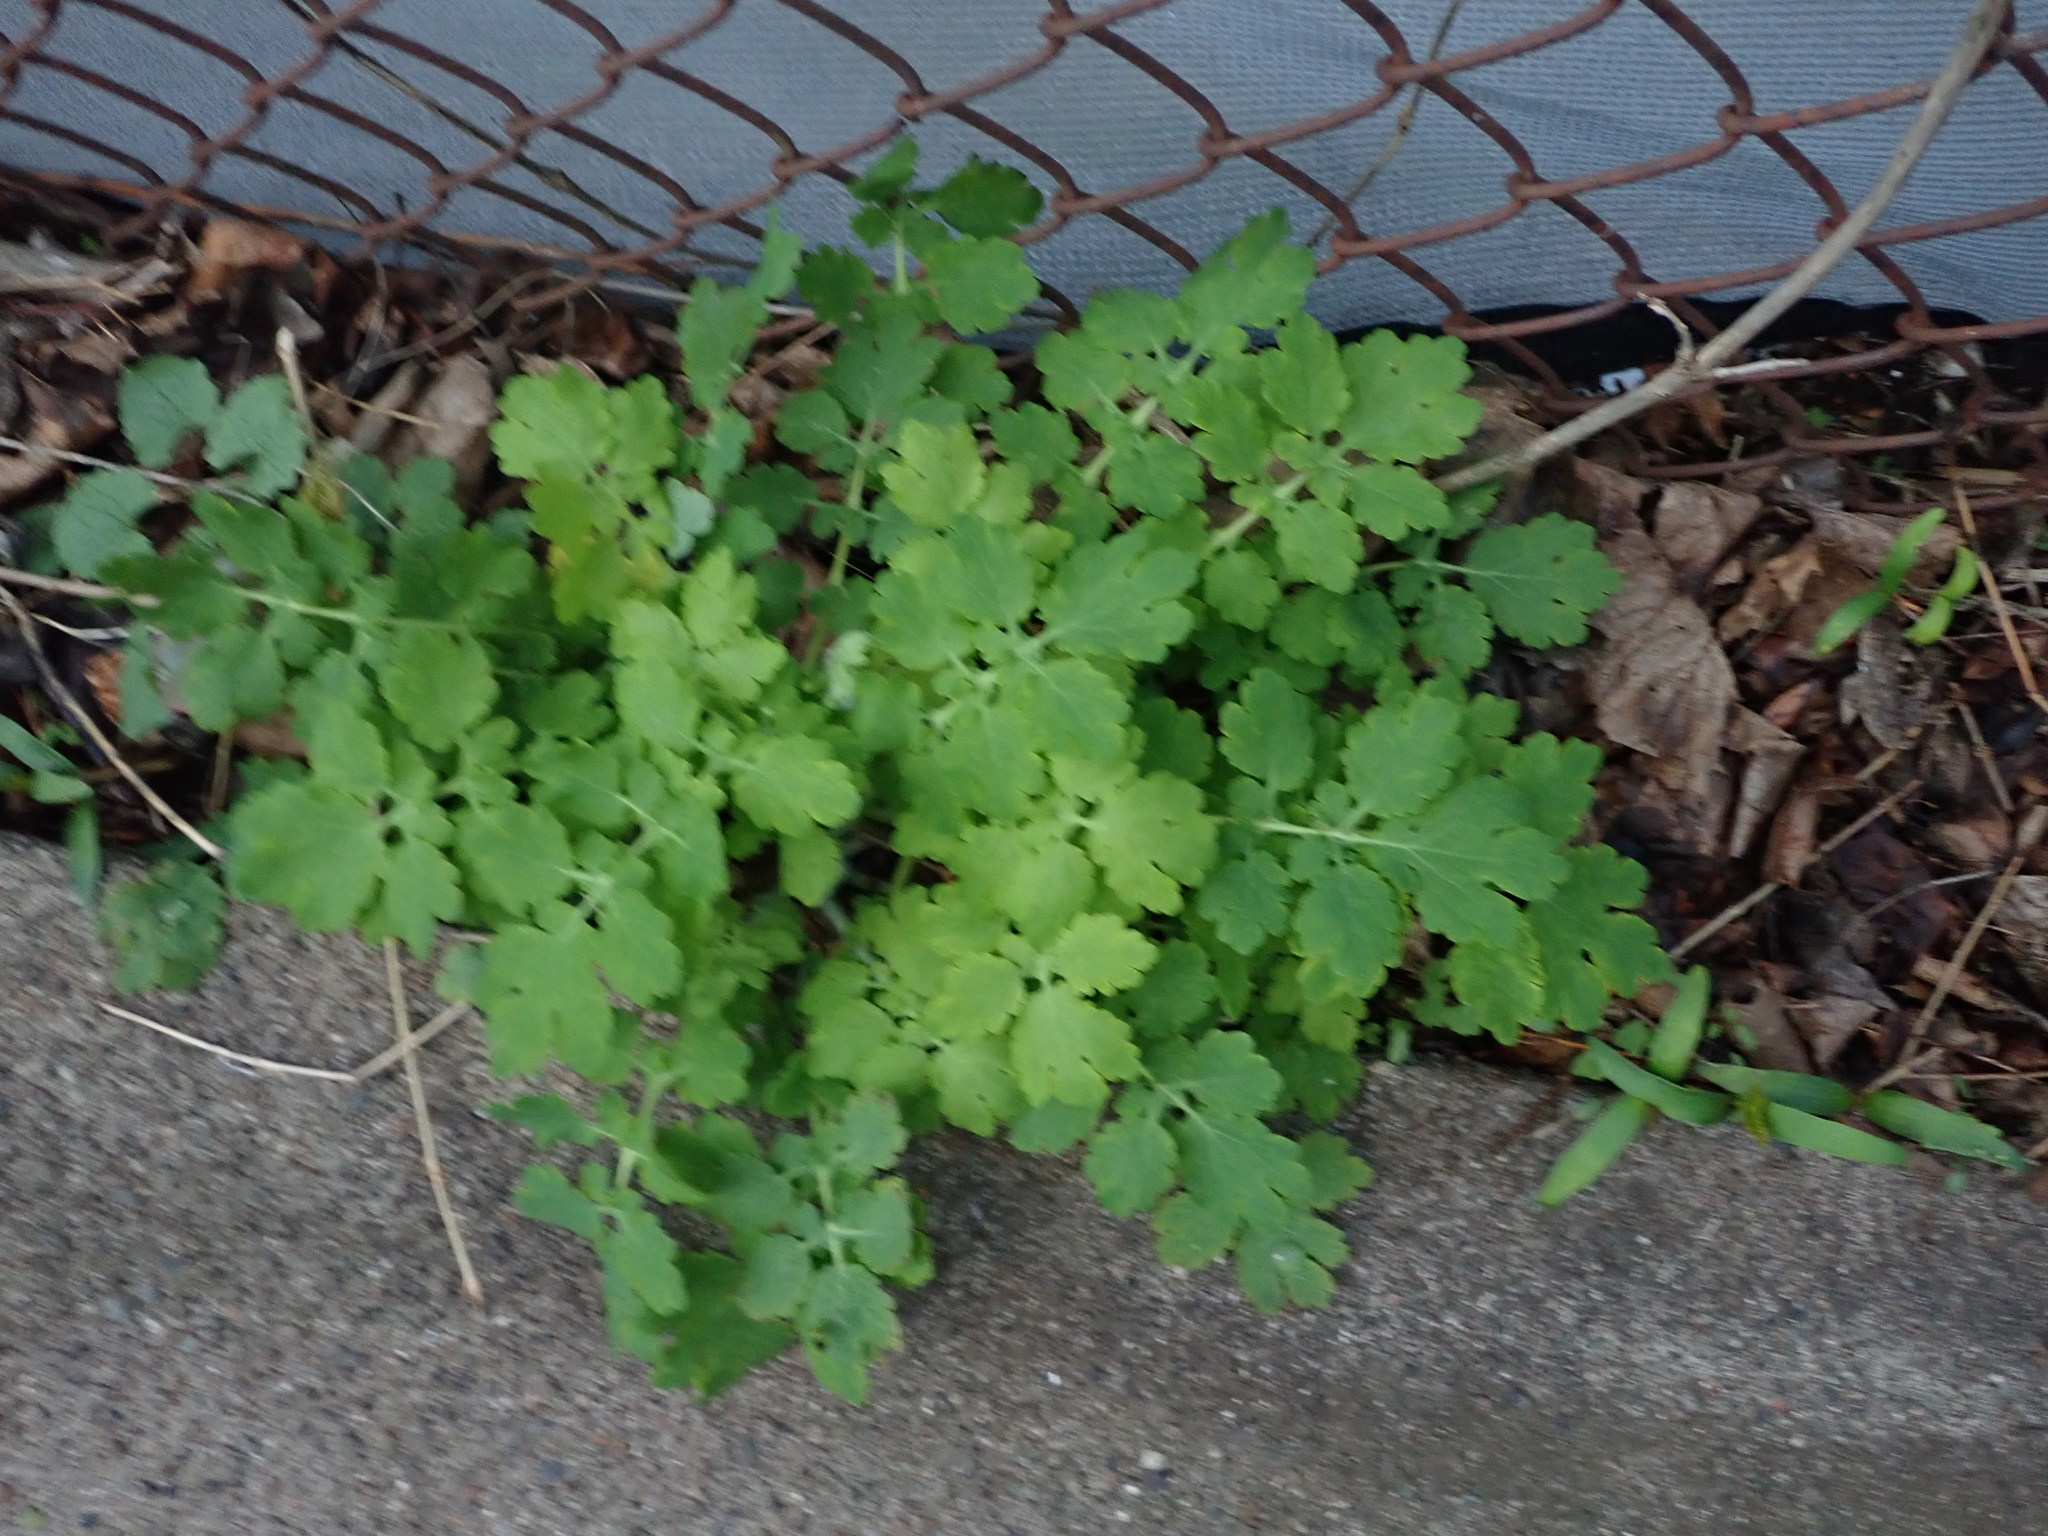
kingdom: Plantae
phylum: Tracheophyta
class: Magnoliopsida
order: Ranunculales
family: Papaveraceae
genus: Chelidonium
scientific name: Chelidonium majus
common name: Greater celandine
